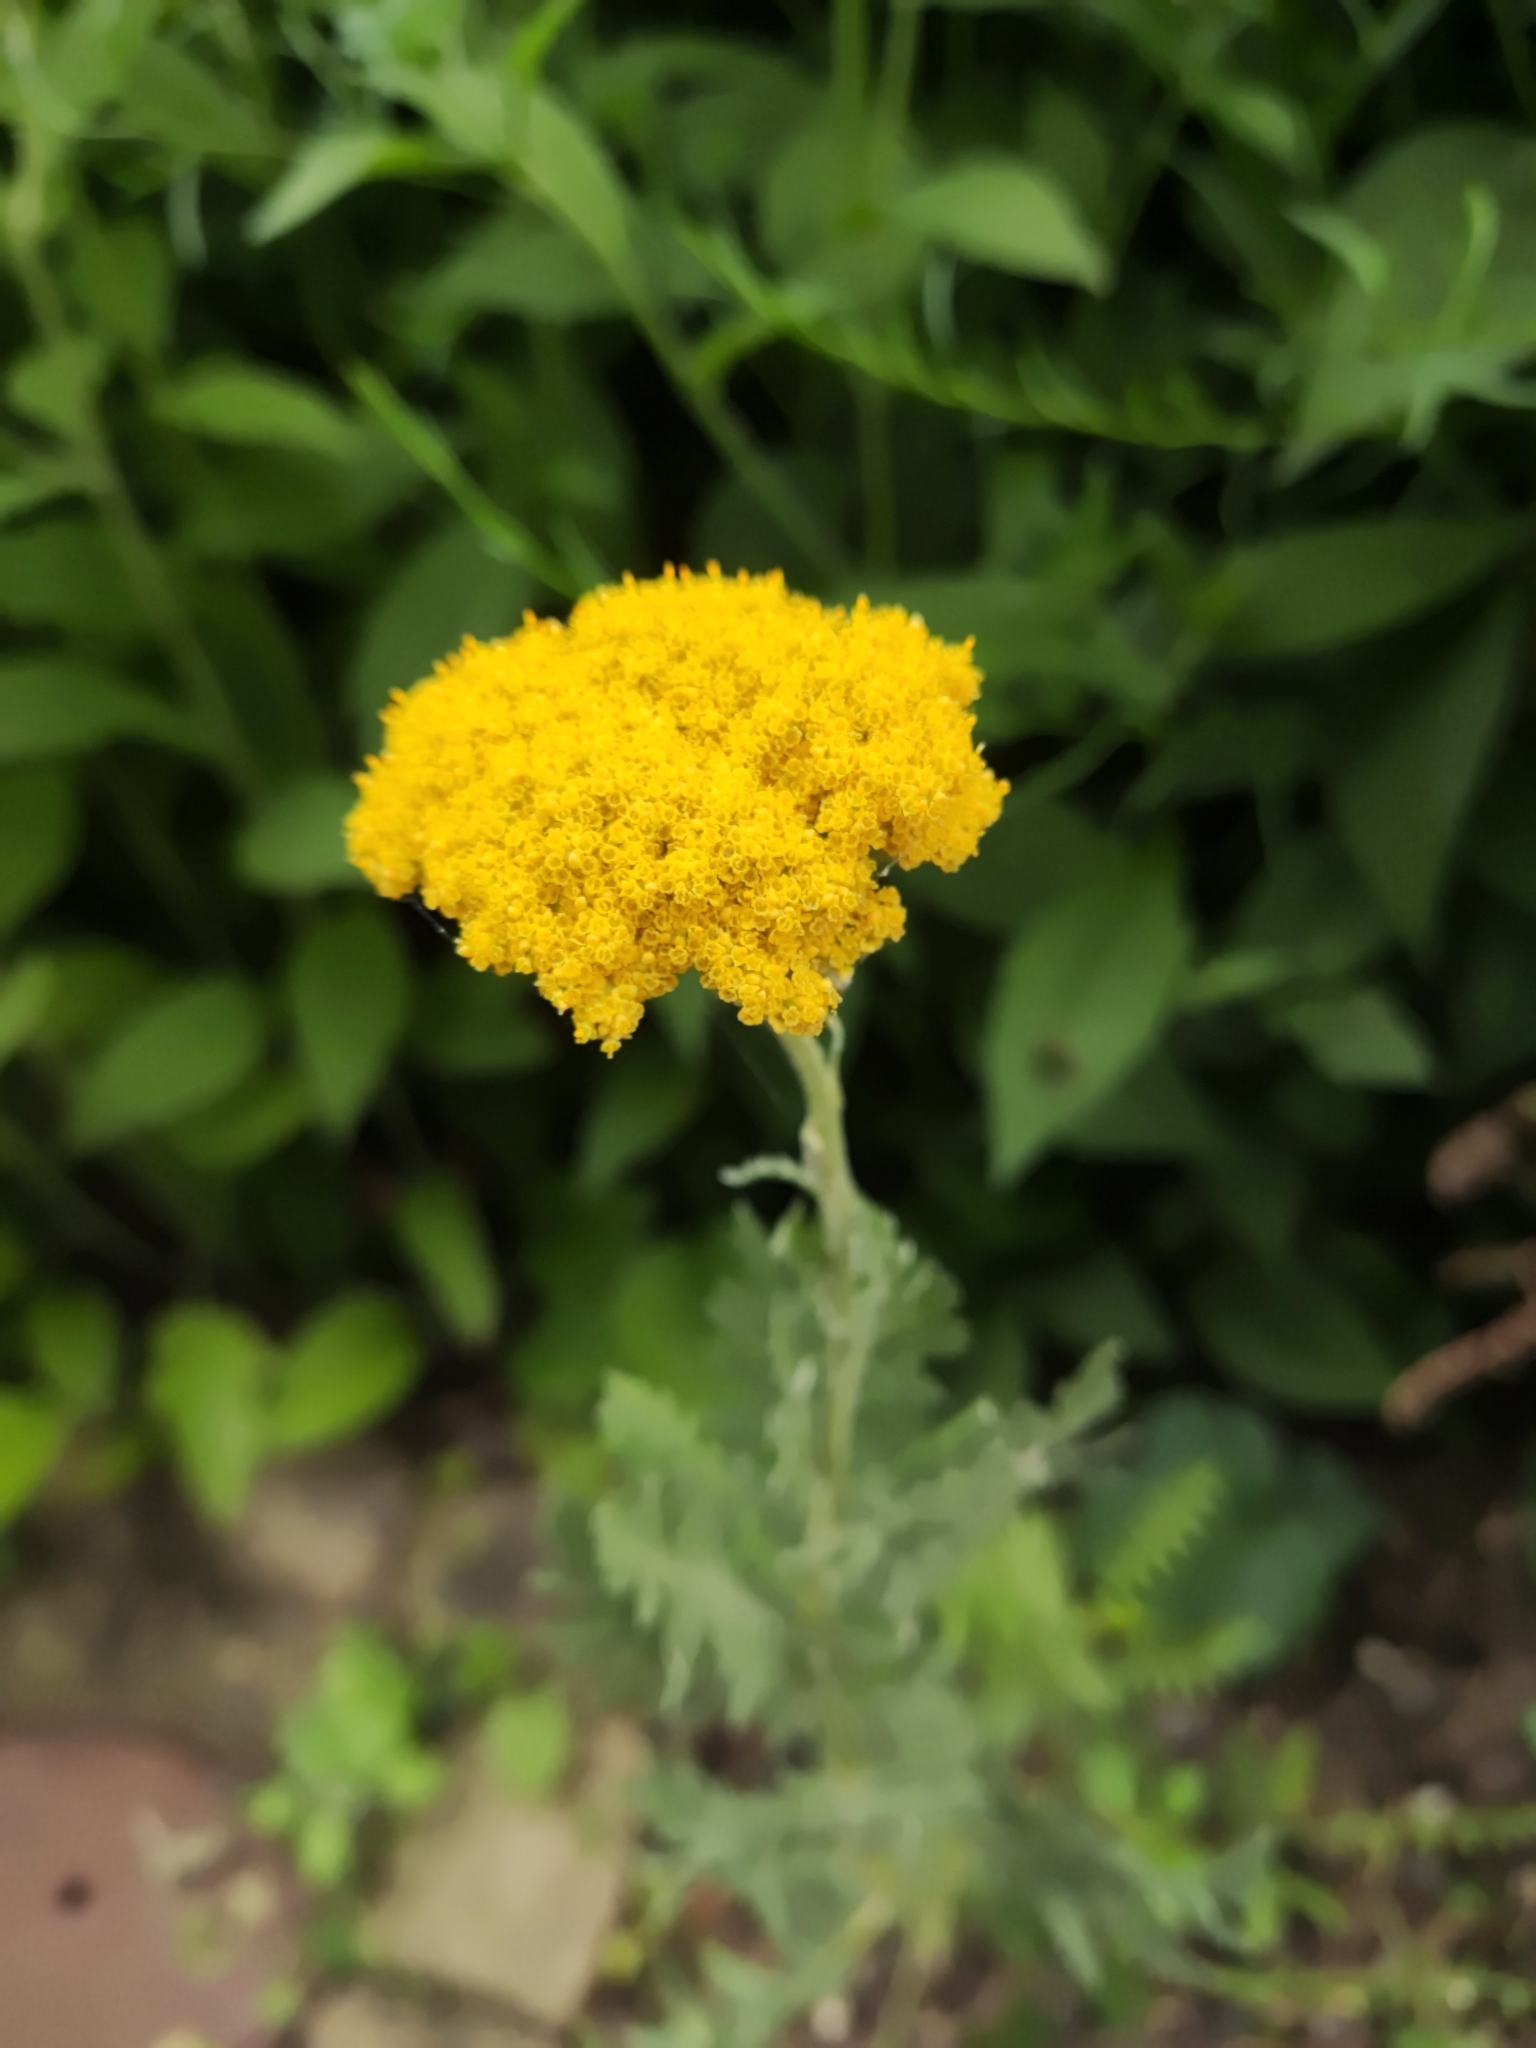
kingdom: Plantae
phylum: Tracheophyta
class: Magnoliopsida
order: Asterales
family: Asteraceae
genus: Achillea
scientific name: Achillea filipendulina
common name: Fernleaf yarrow
